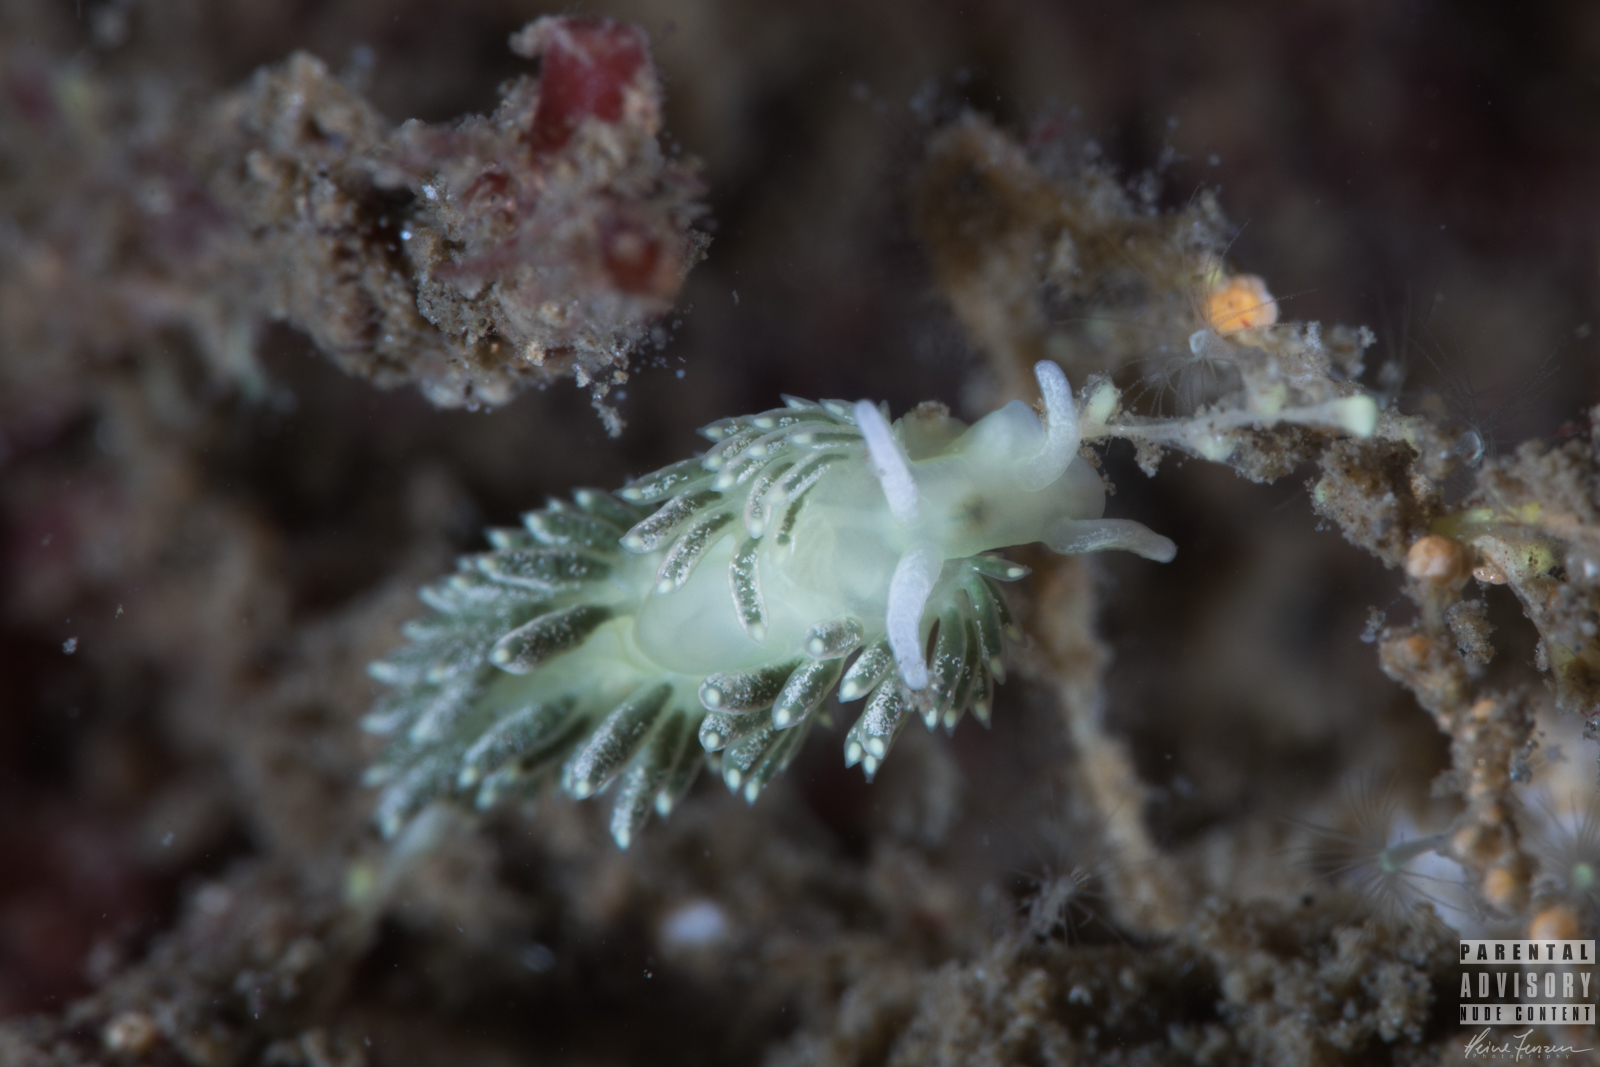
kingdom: Animalia
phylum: Mollusca
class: Gastropoda
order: Nudibranchia
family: Trinchesiidae
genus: Diaphoreolis
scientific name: Diaphoreolis viridis
